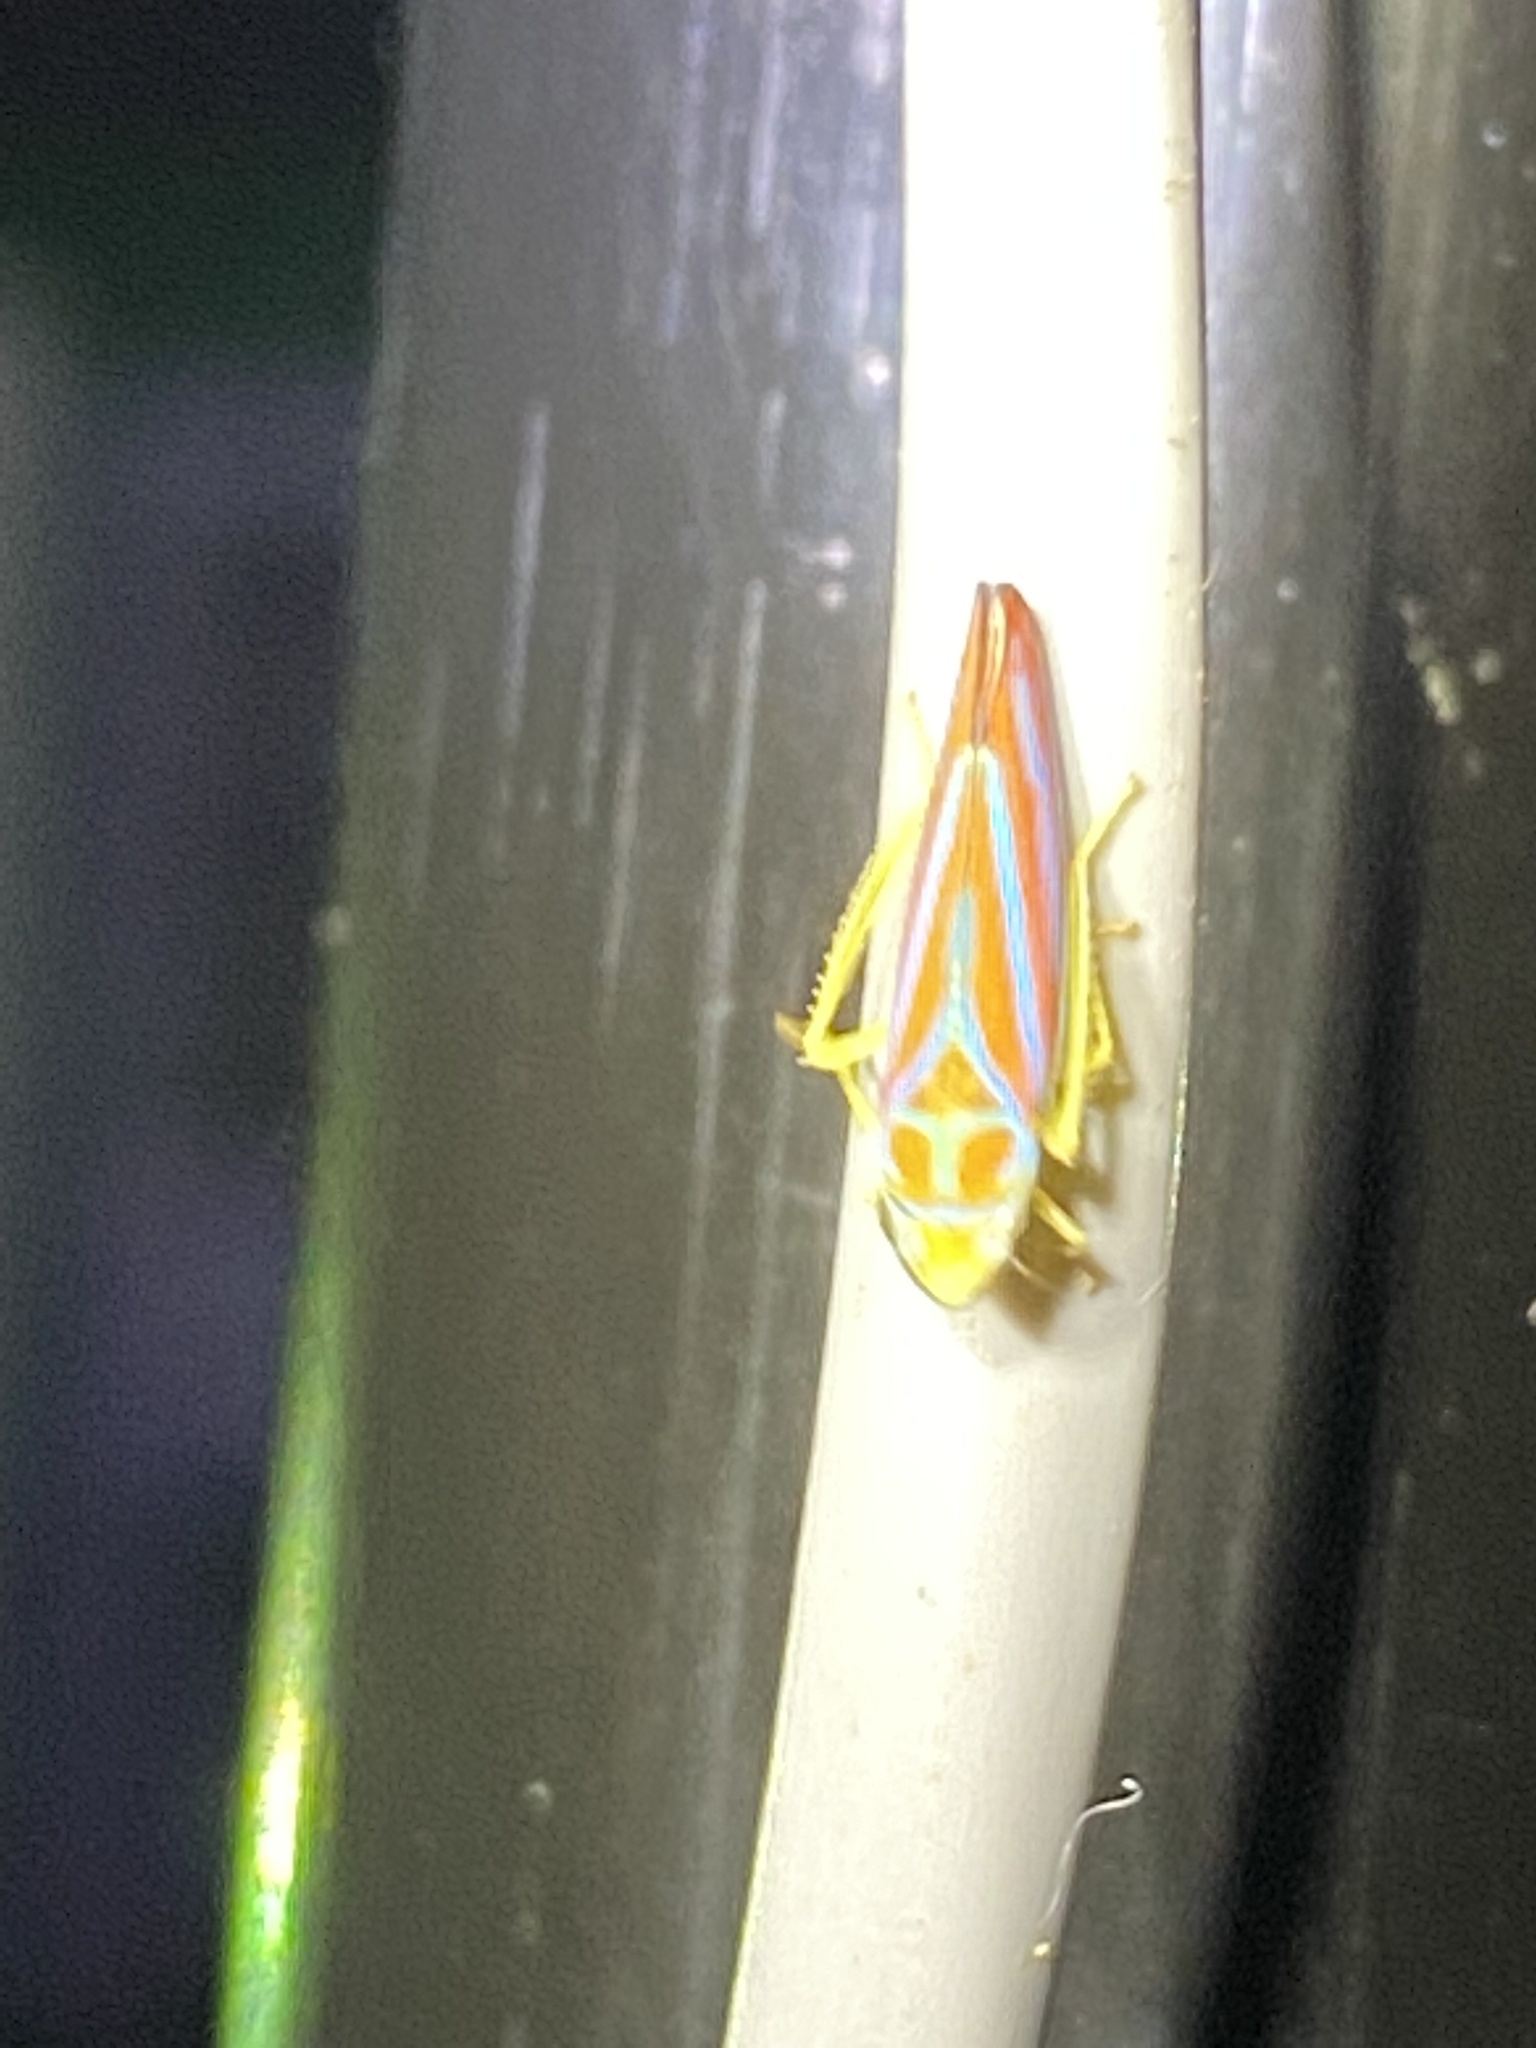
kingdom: Animalia
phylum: Arthropoda
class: Insecta
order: Hemiptera
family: Cicadellidae
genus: Graphocephala
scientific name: Graphocephala coccinea
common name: Candy-striped leafhopper
